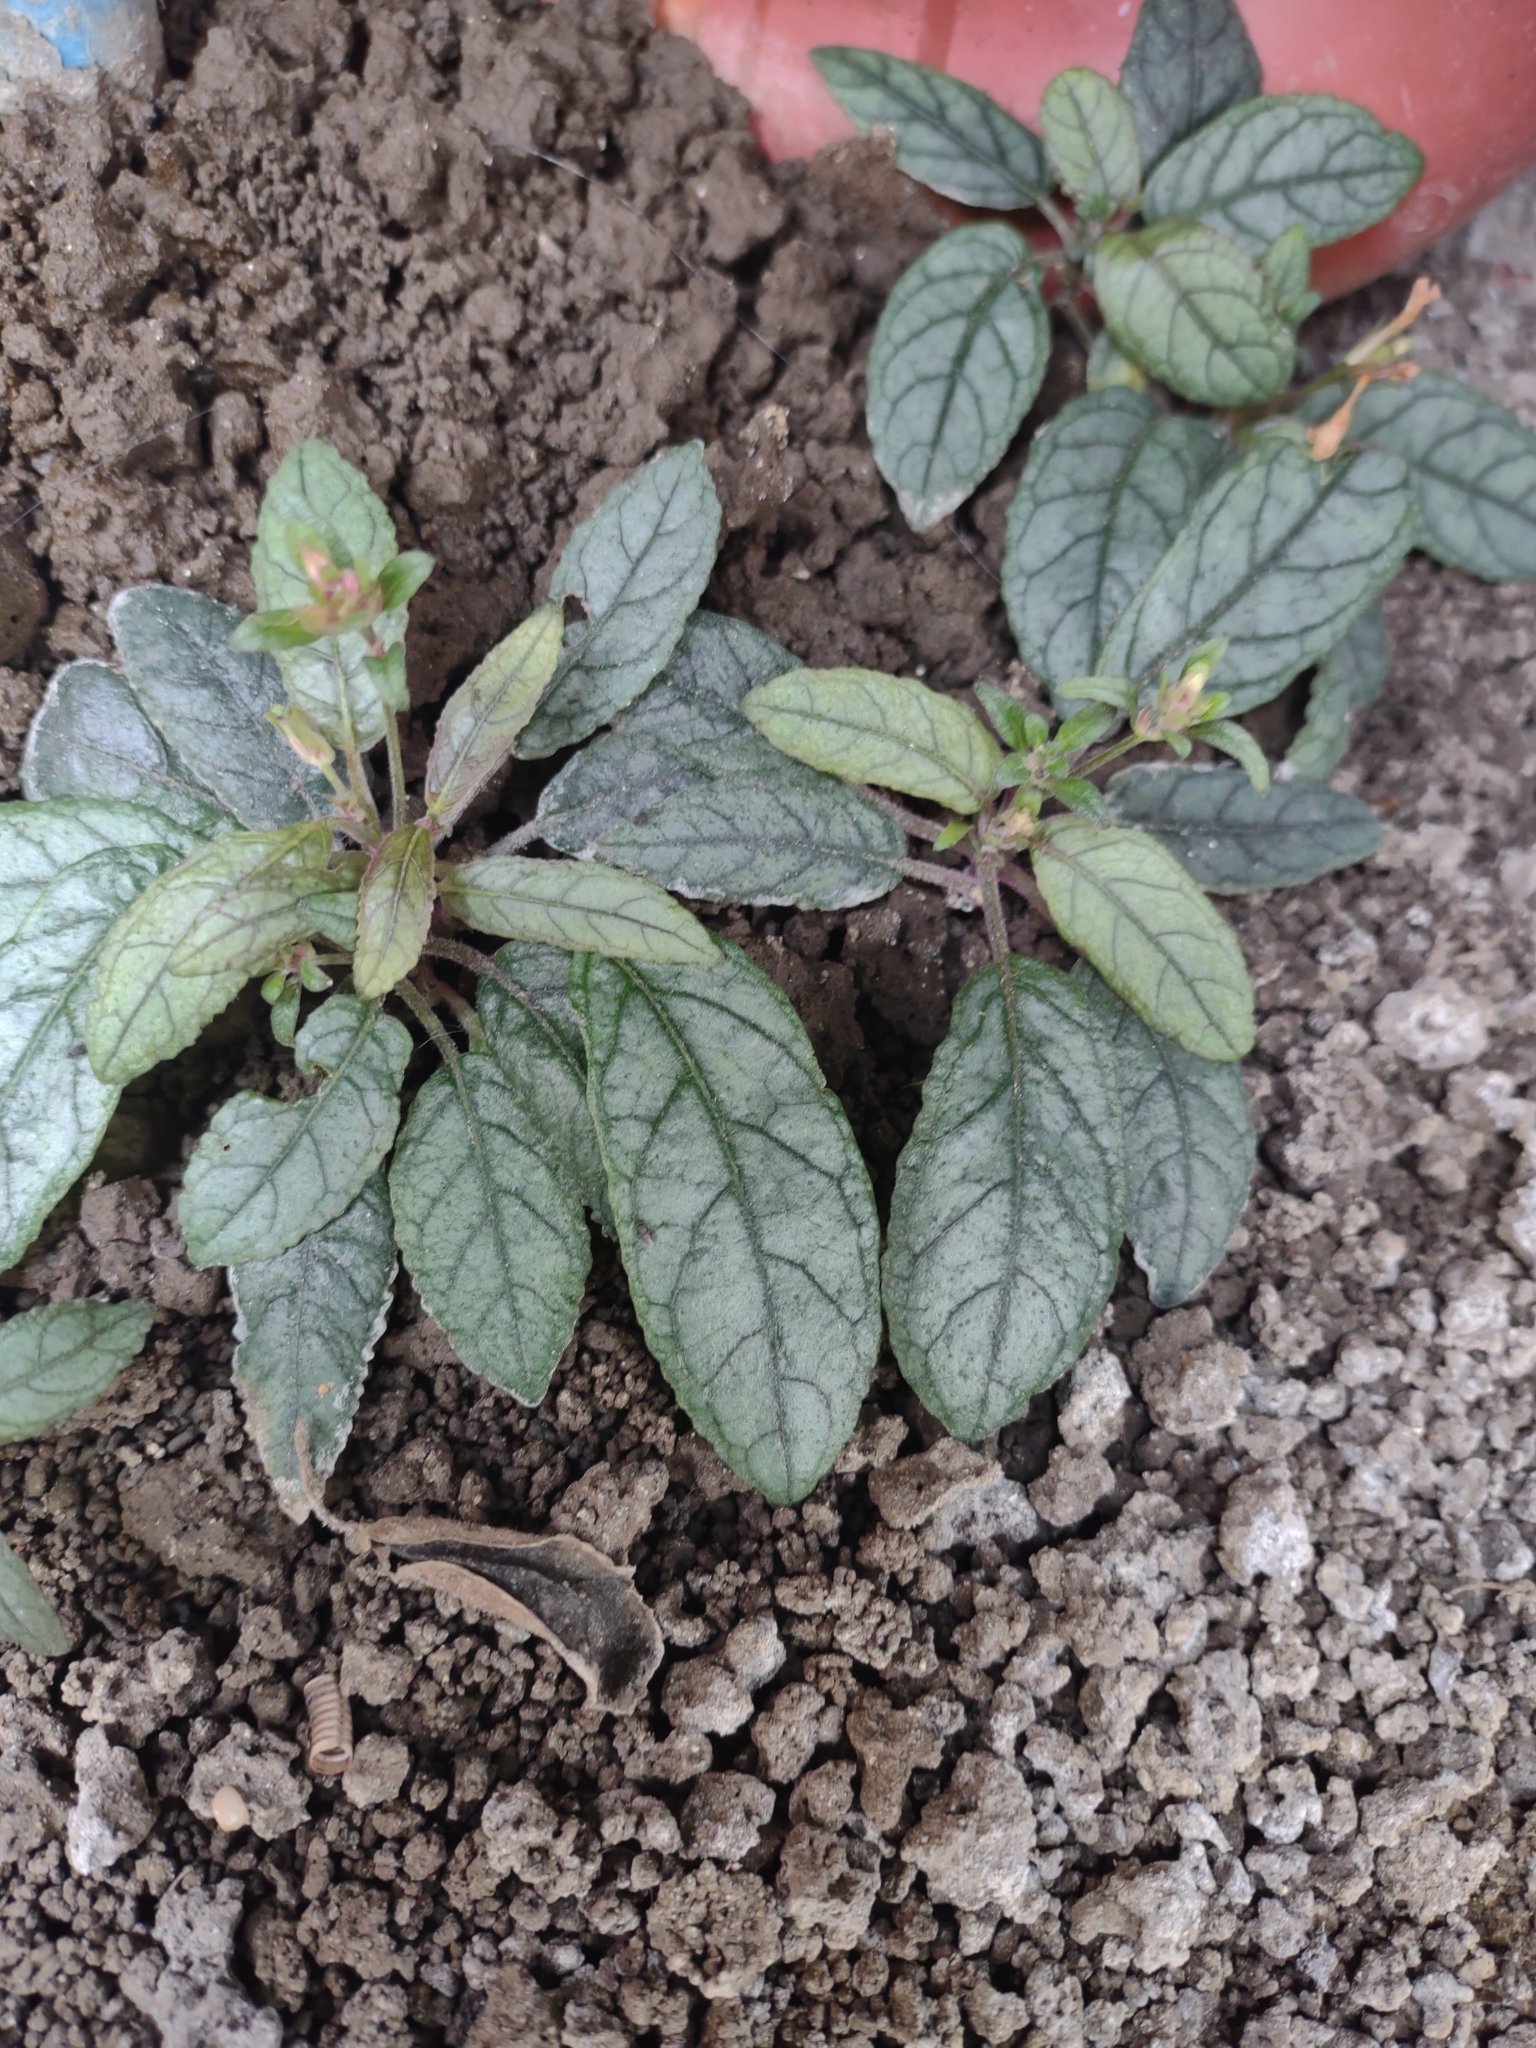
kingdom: Plantae
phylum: Tracheophyta
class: Magnoliopsida
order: Lamiales
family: Acanthaceae
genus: Strobilanthes
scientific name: Strobilanthes reptans
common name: Acanthaceae
